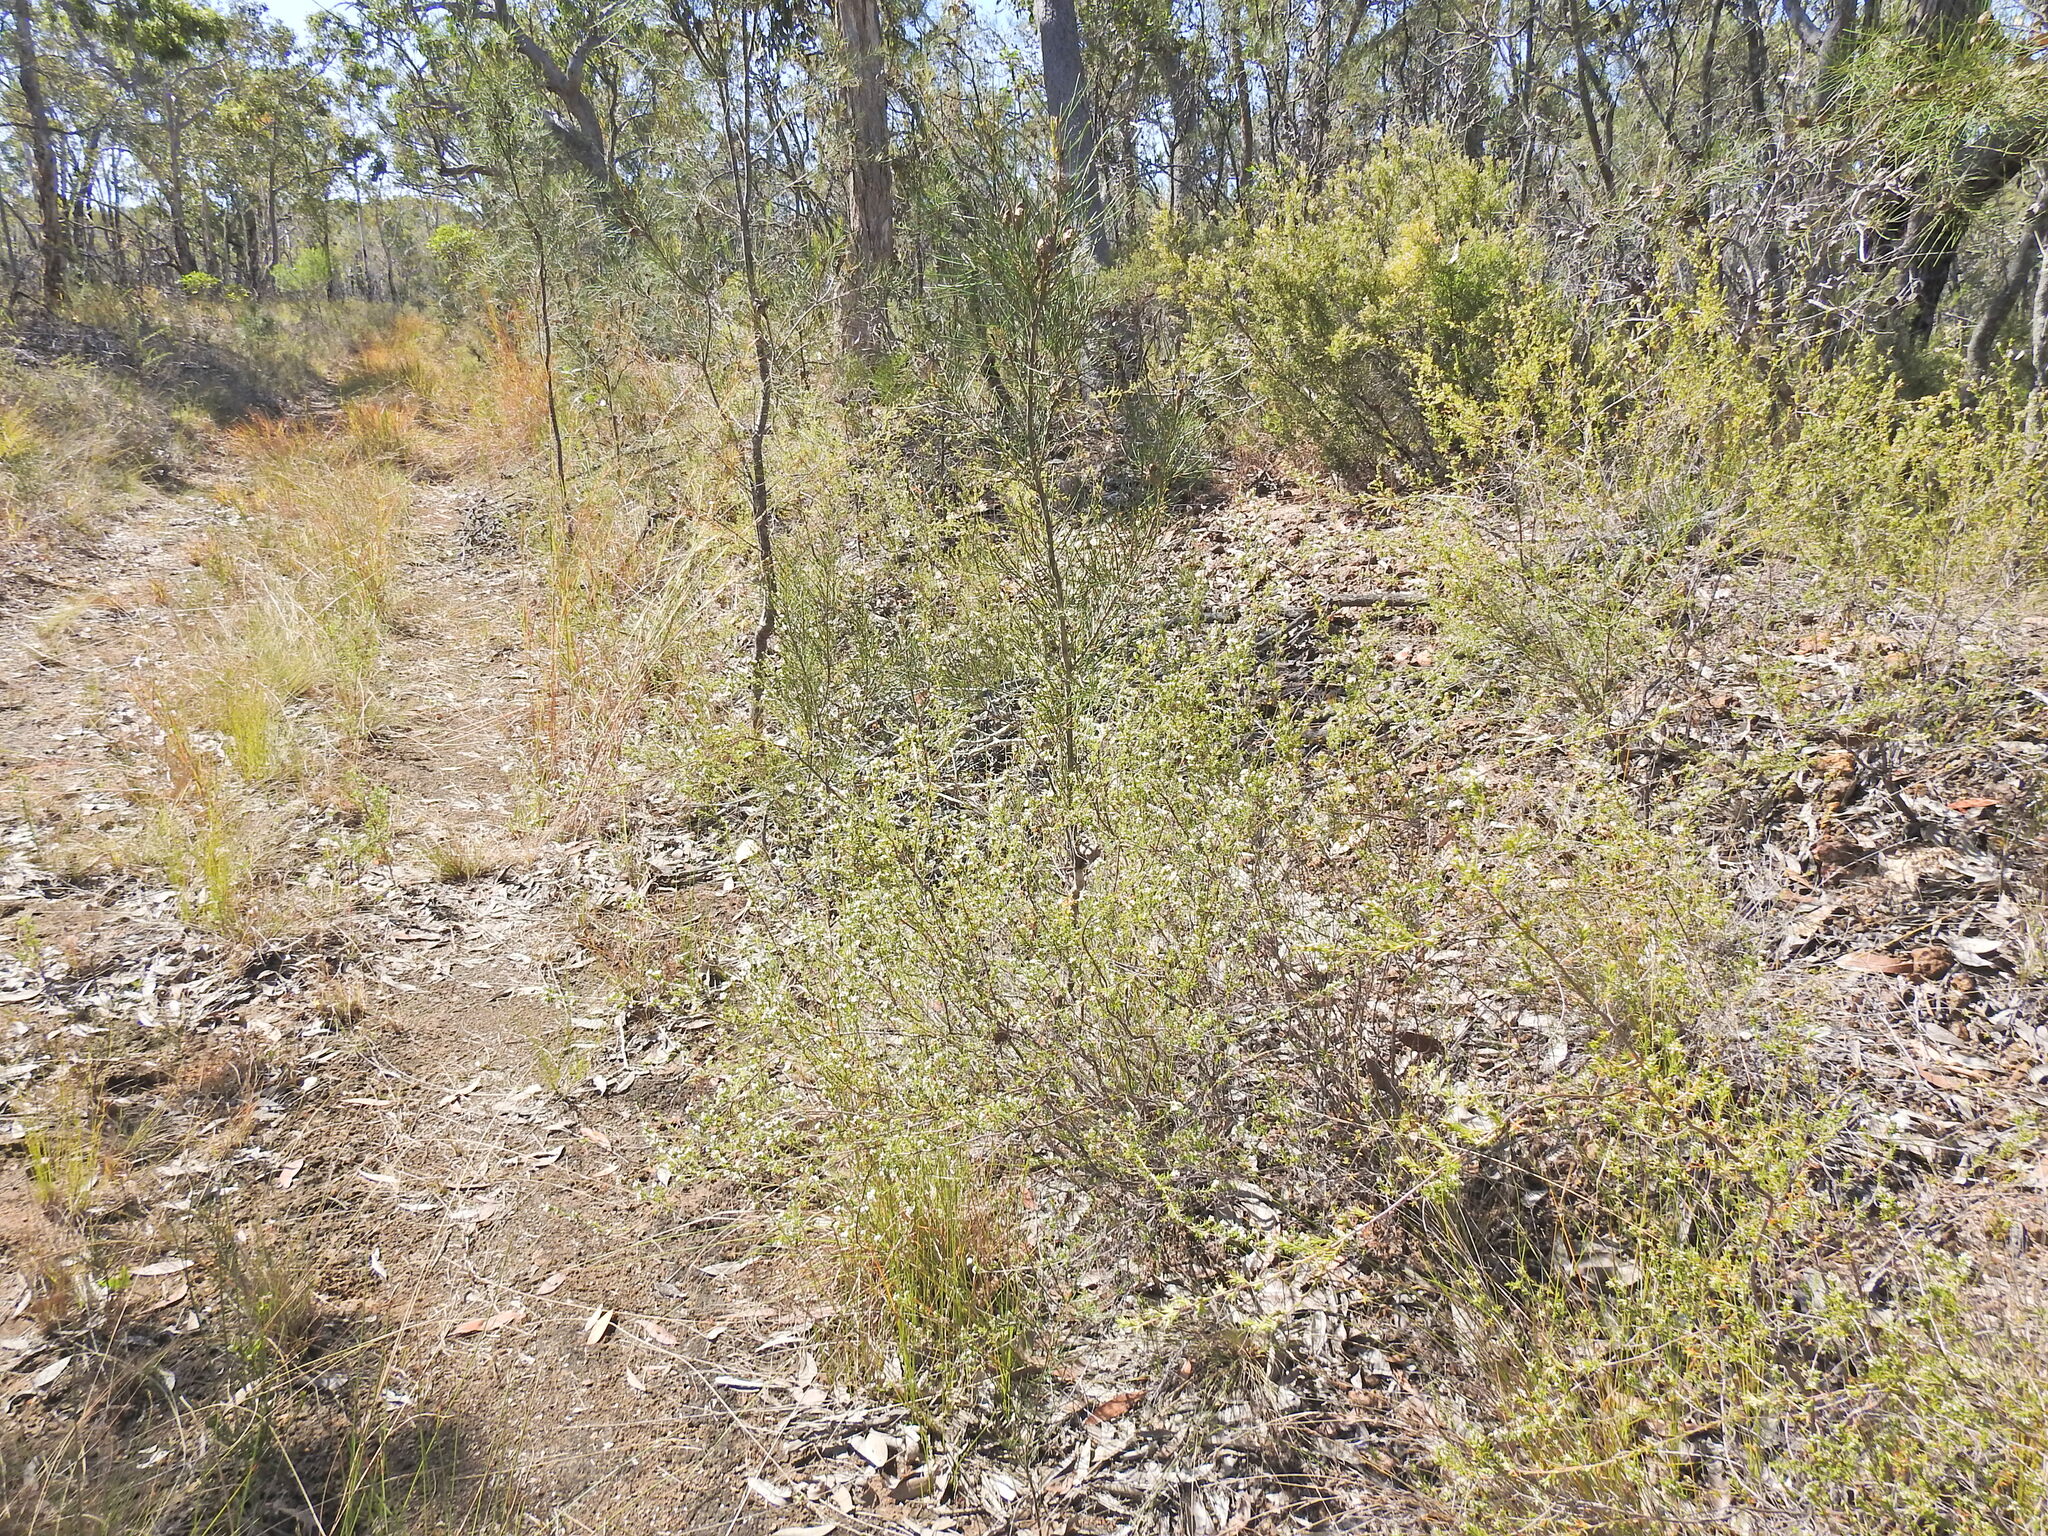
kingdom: Plantae
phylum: Tracheophyta
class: Magnoliopsida
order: Ericales
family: Ericaceae
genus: Styphelia
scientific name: Styphelia
